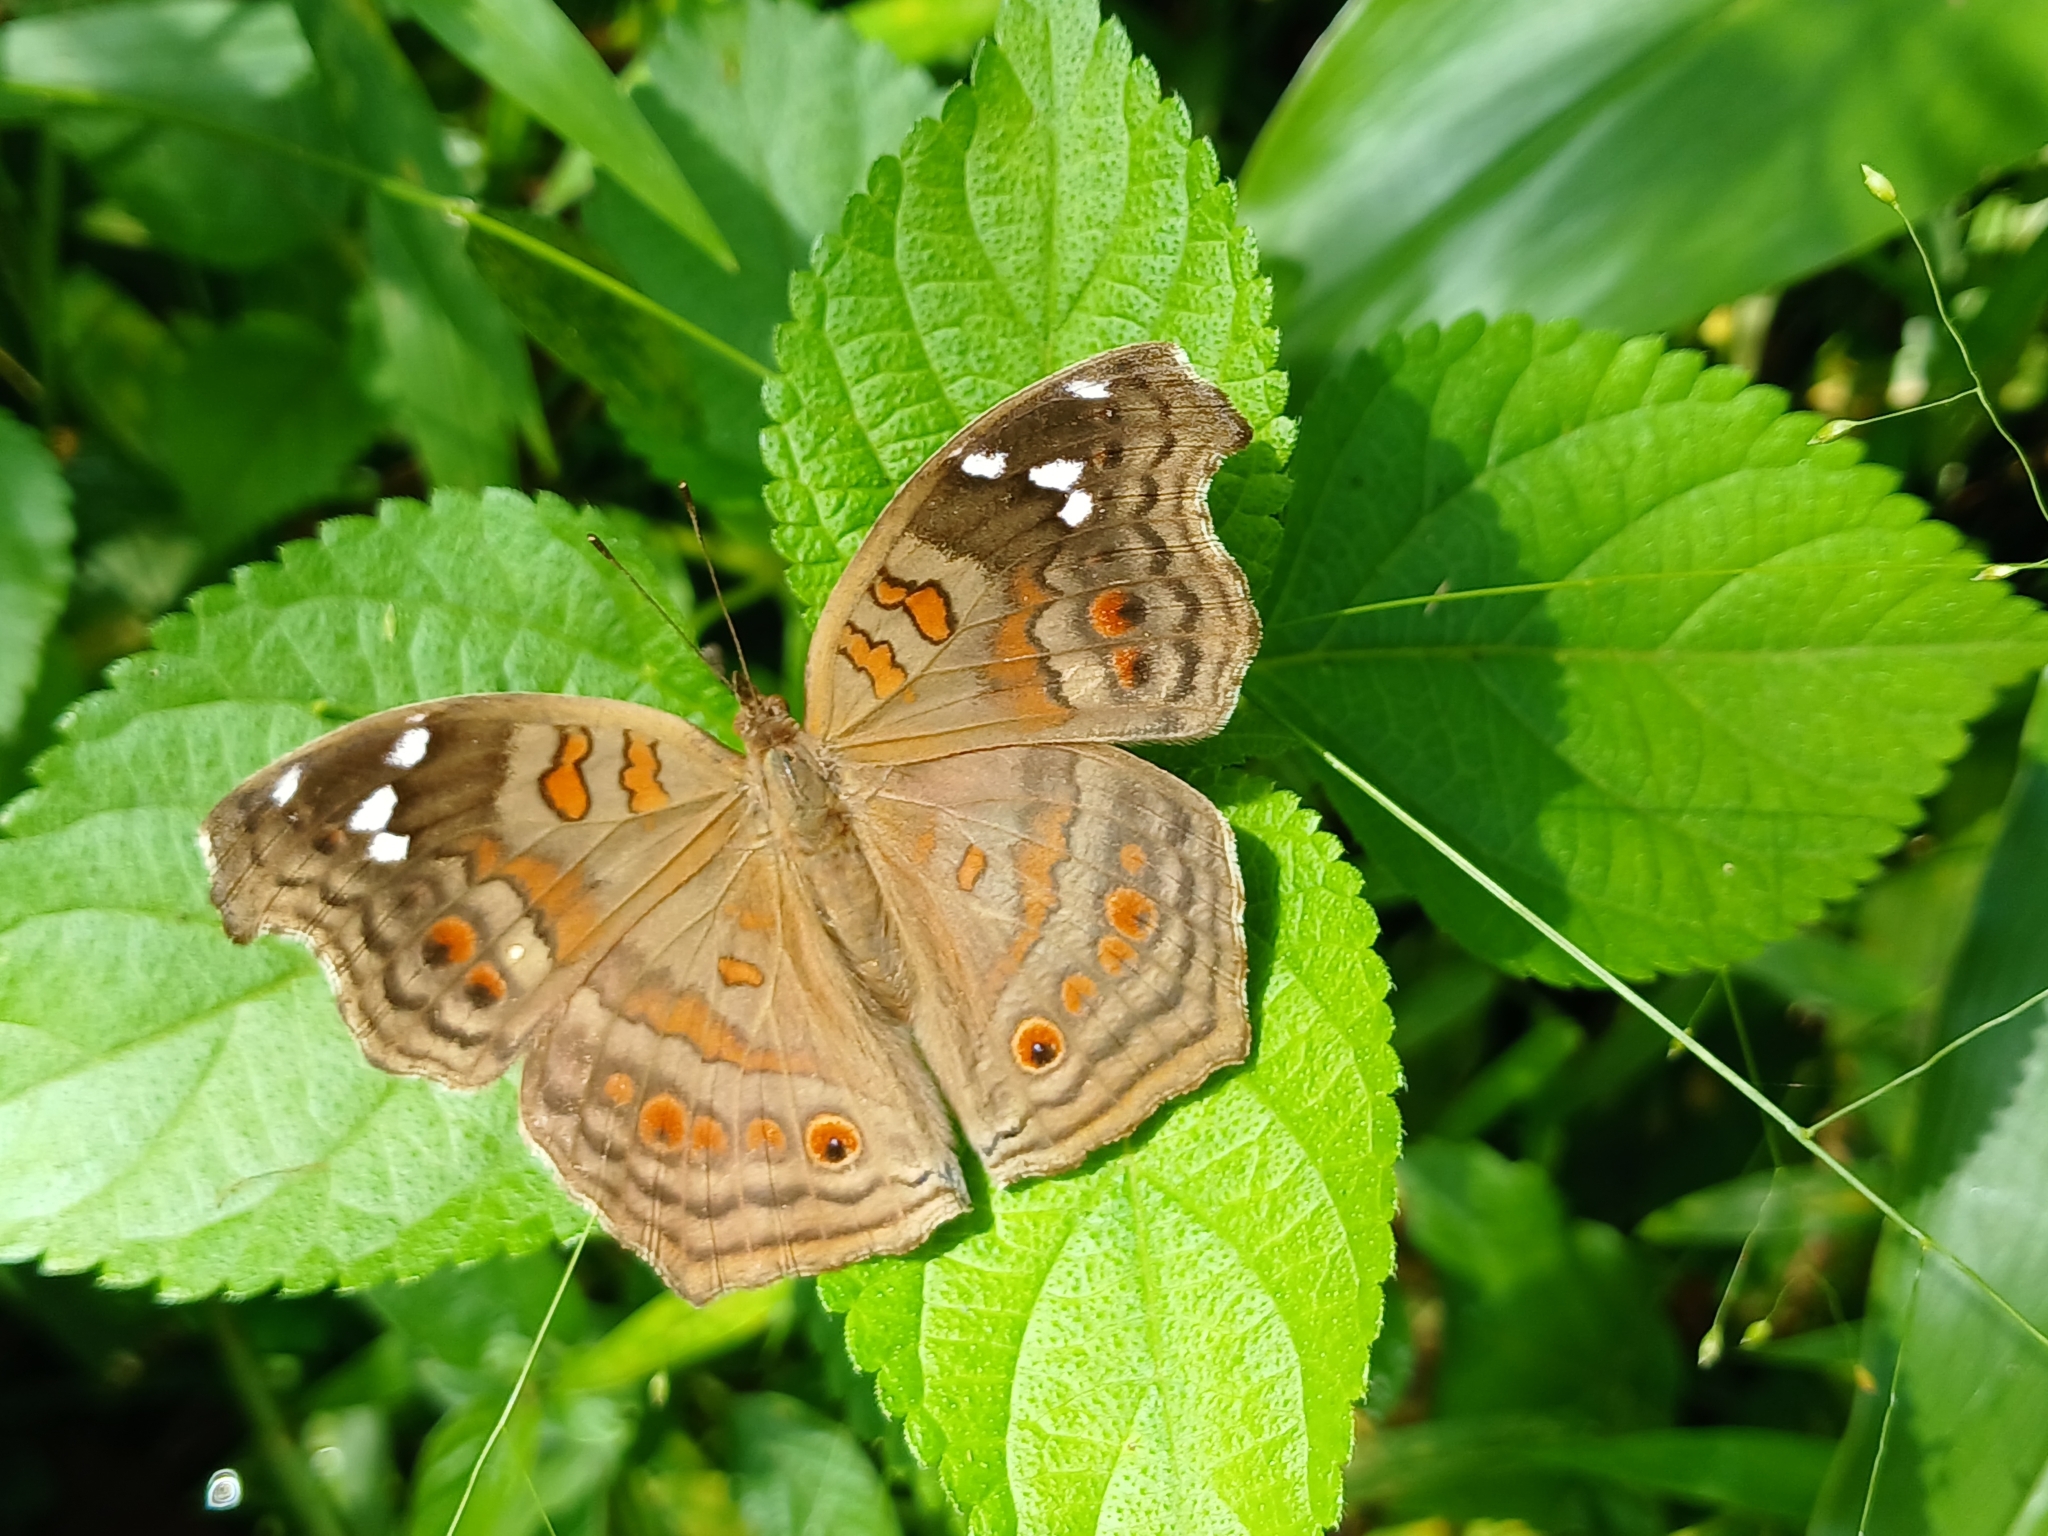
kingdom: Animalia
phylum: Arthropoda
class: Insecta
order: Lepidoptera
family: Nymphalidae
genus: Junonia
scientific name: Junonia natalica
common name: Brown pansy
